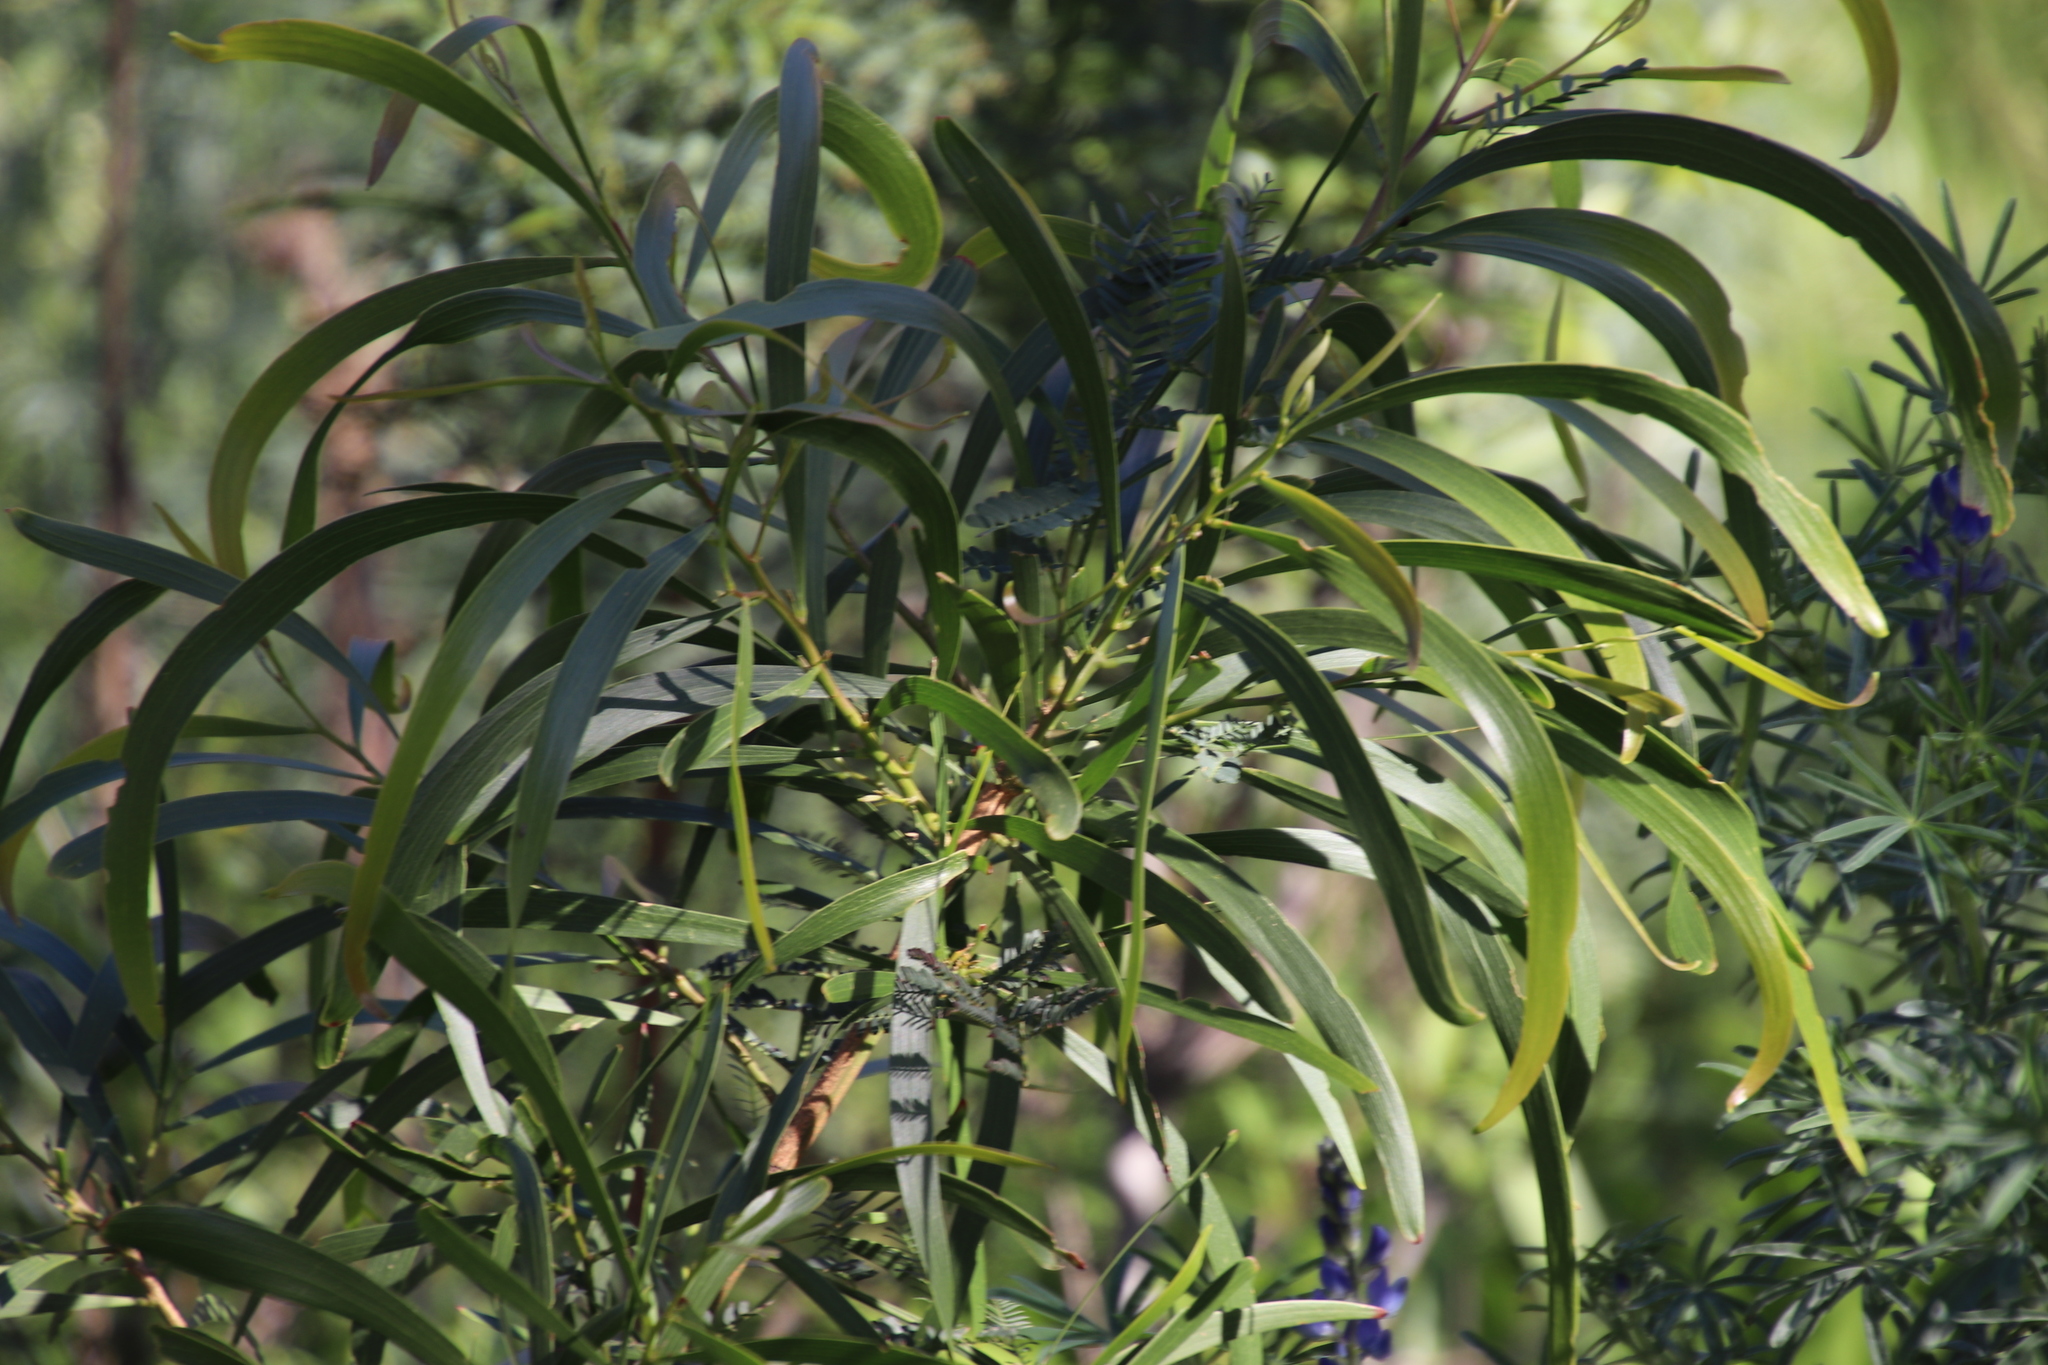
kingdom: Plantae
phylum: Tracheophyta
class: Magnoliopsida
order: Fabales
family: Fabaceae
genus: Acacia
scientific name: Acacia implexa
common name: Black wattle
